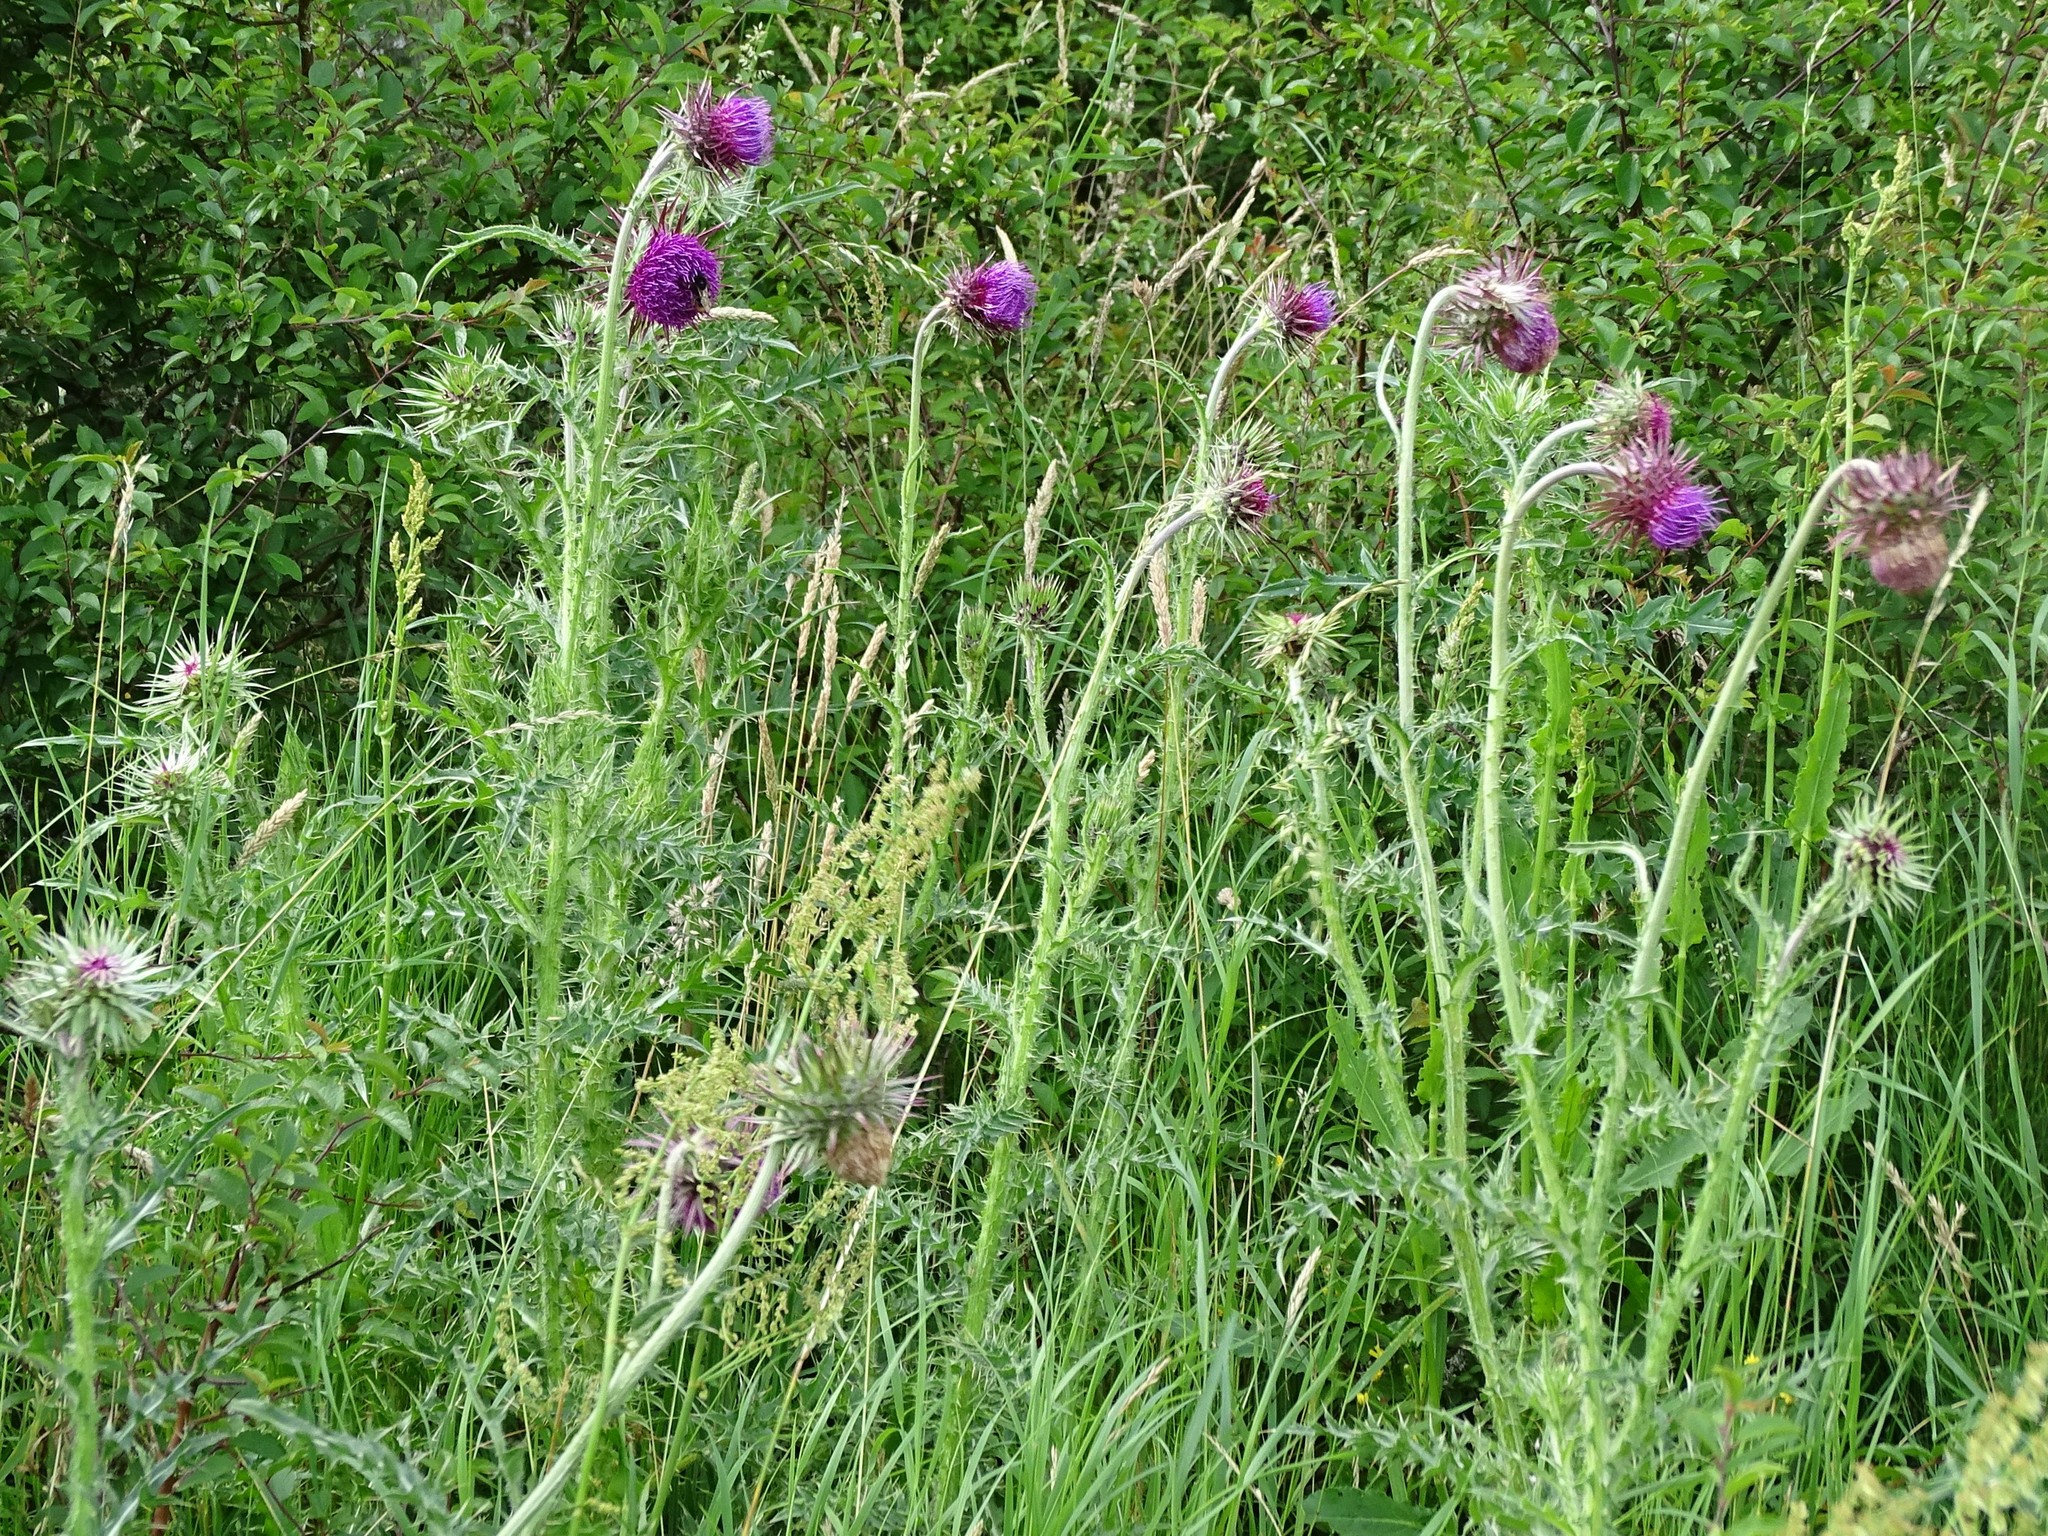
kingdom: Plantae
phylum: Tracheophyta
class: Magnoliopsida
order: Asterales
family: Asteraceae
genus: Carduus
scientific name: Carduus nutans
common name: Musk thistle
